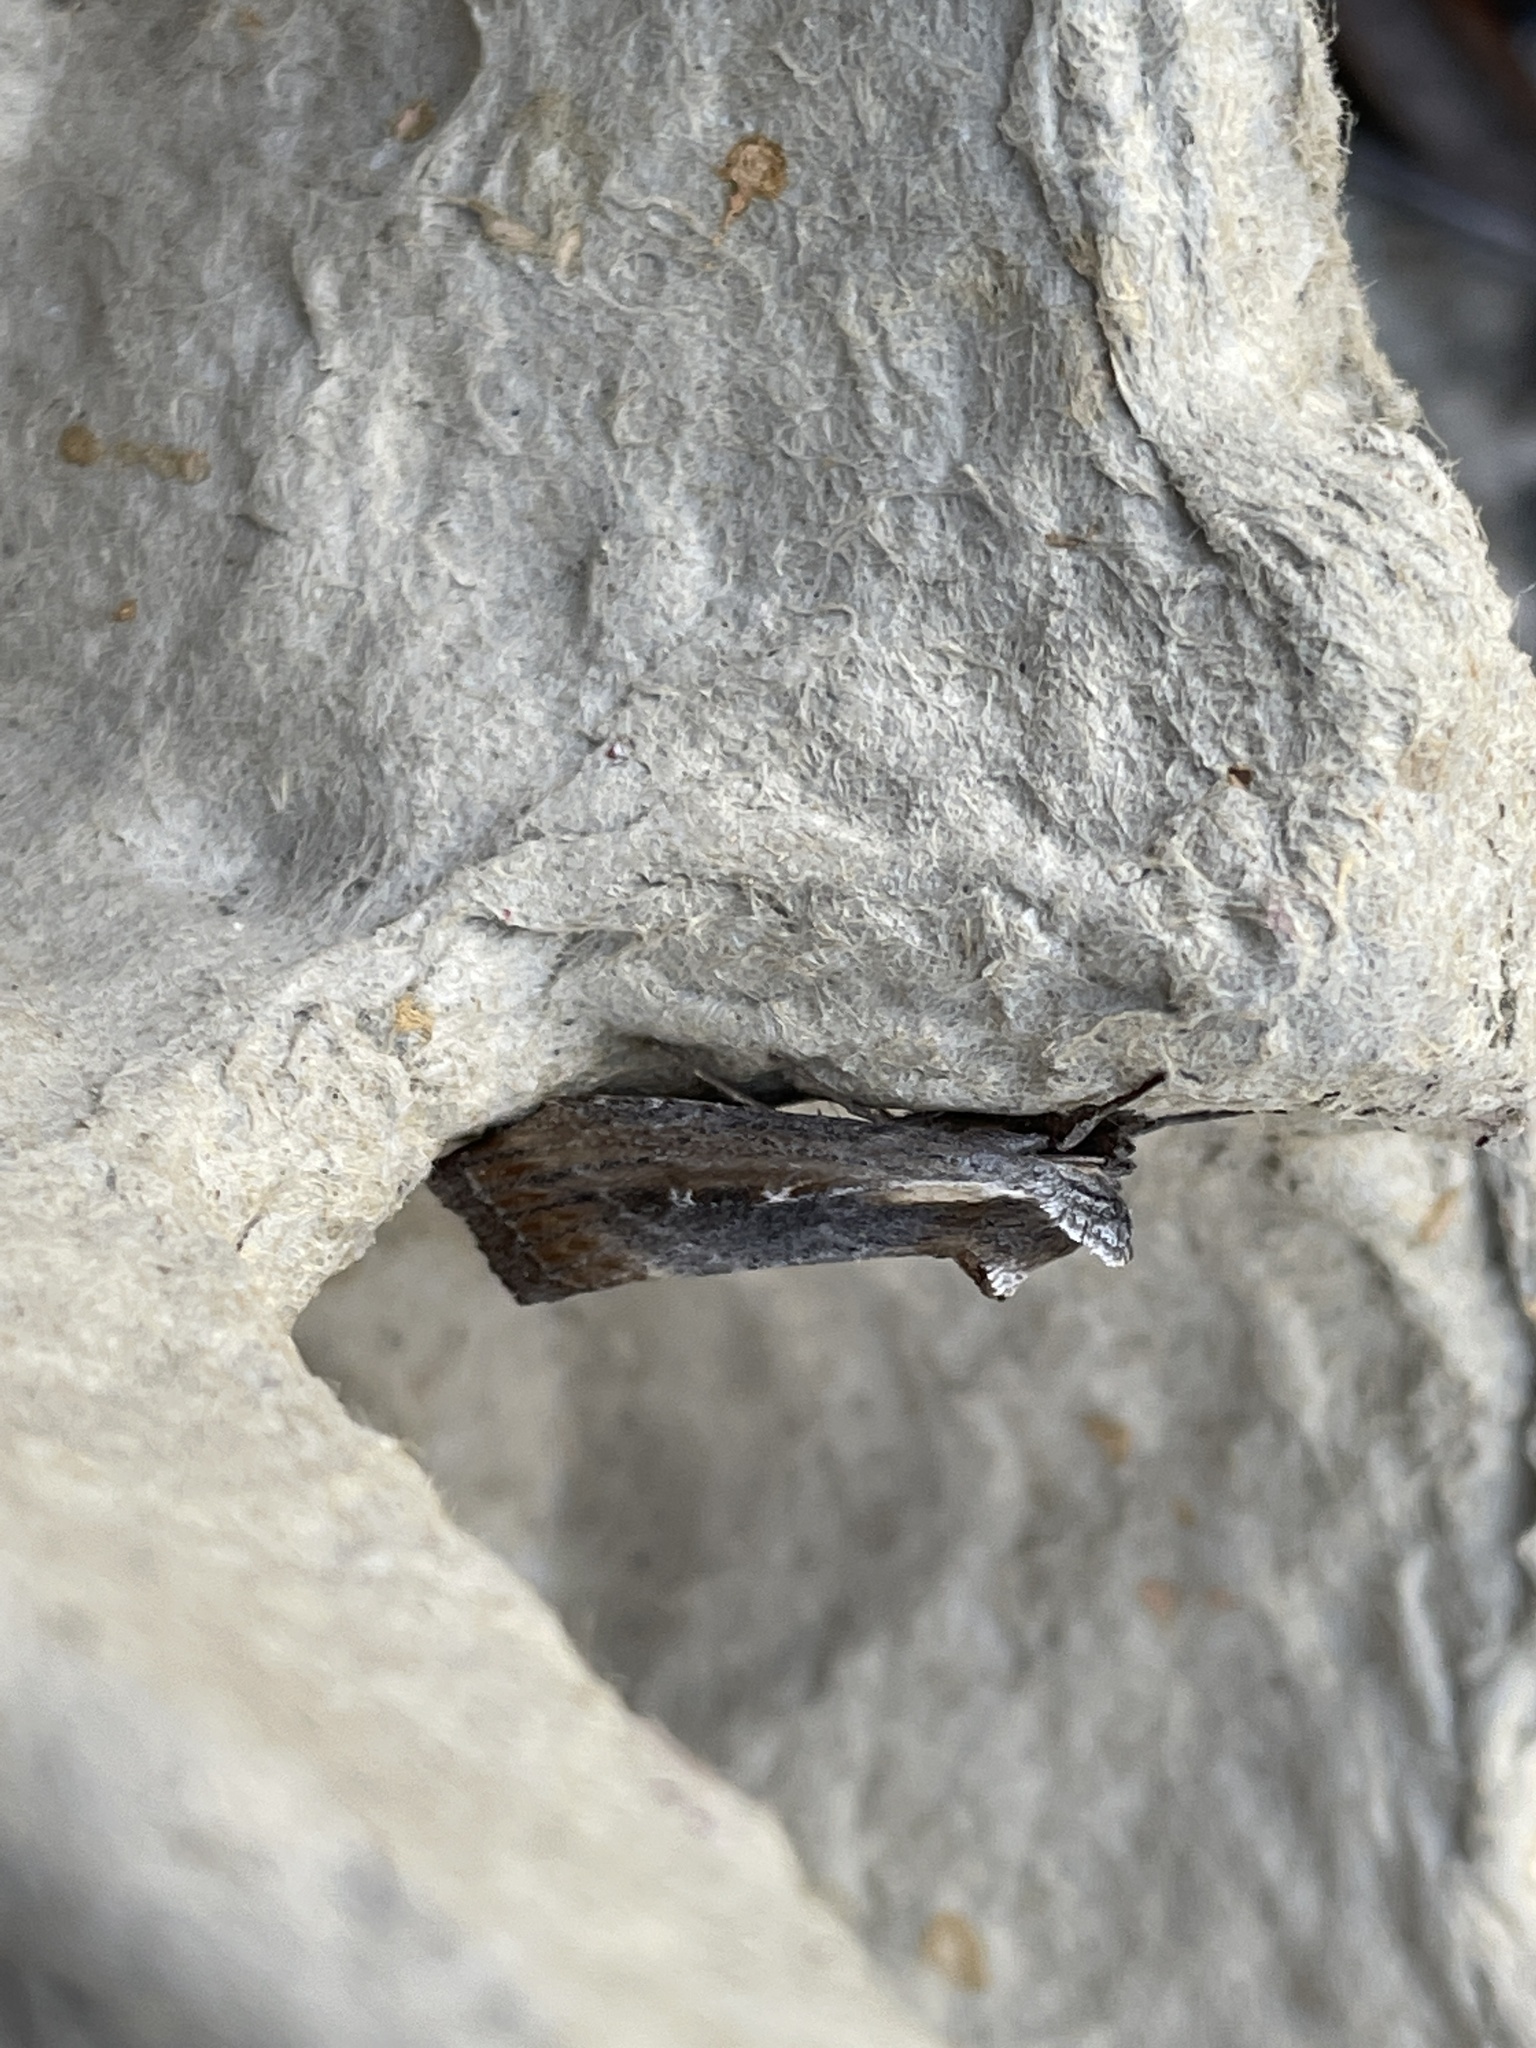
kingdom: Animalia
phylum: Arthropoda
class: Insecta
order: Lepidoptera
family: Noctuidae
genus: Epimecia
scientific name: Epimecia ustula
